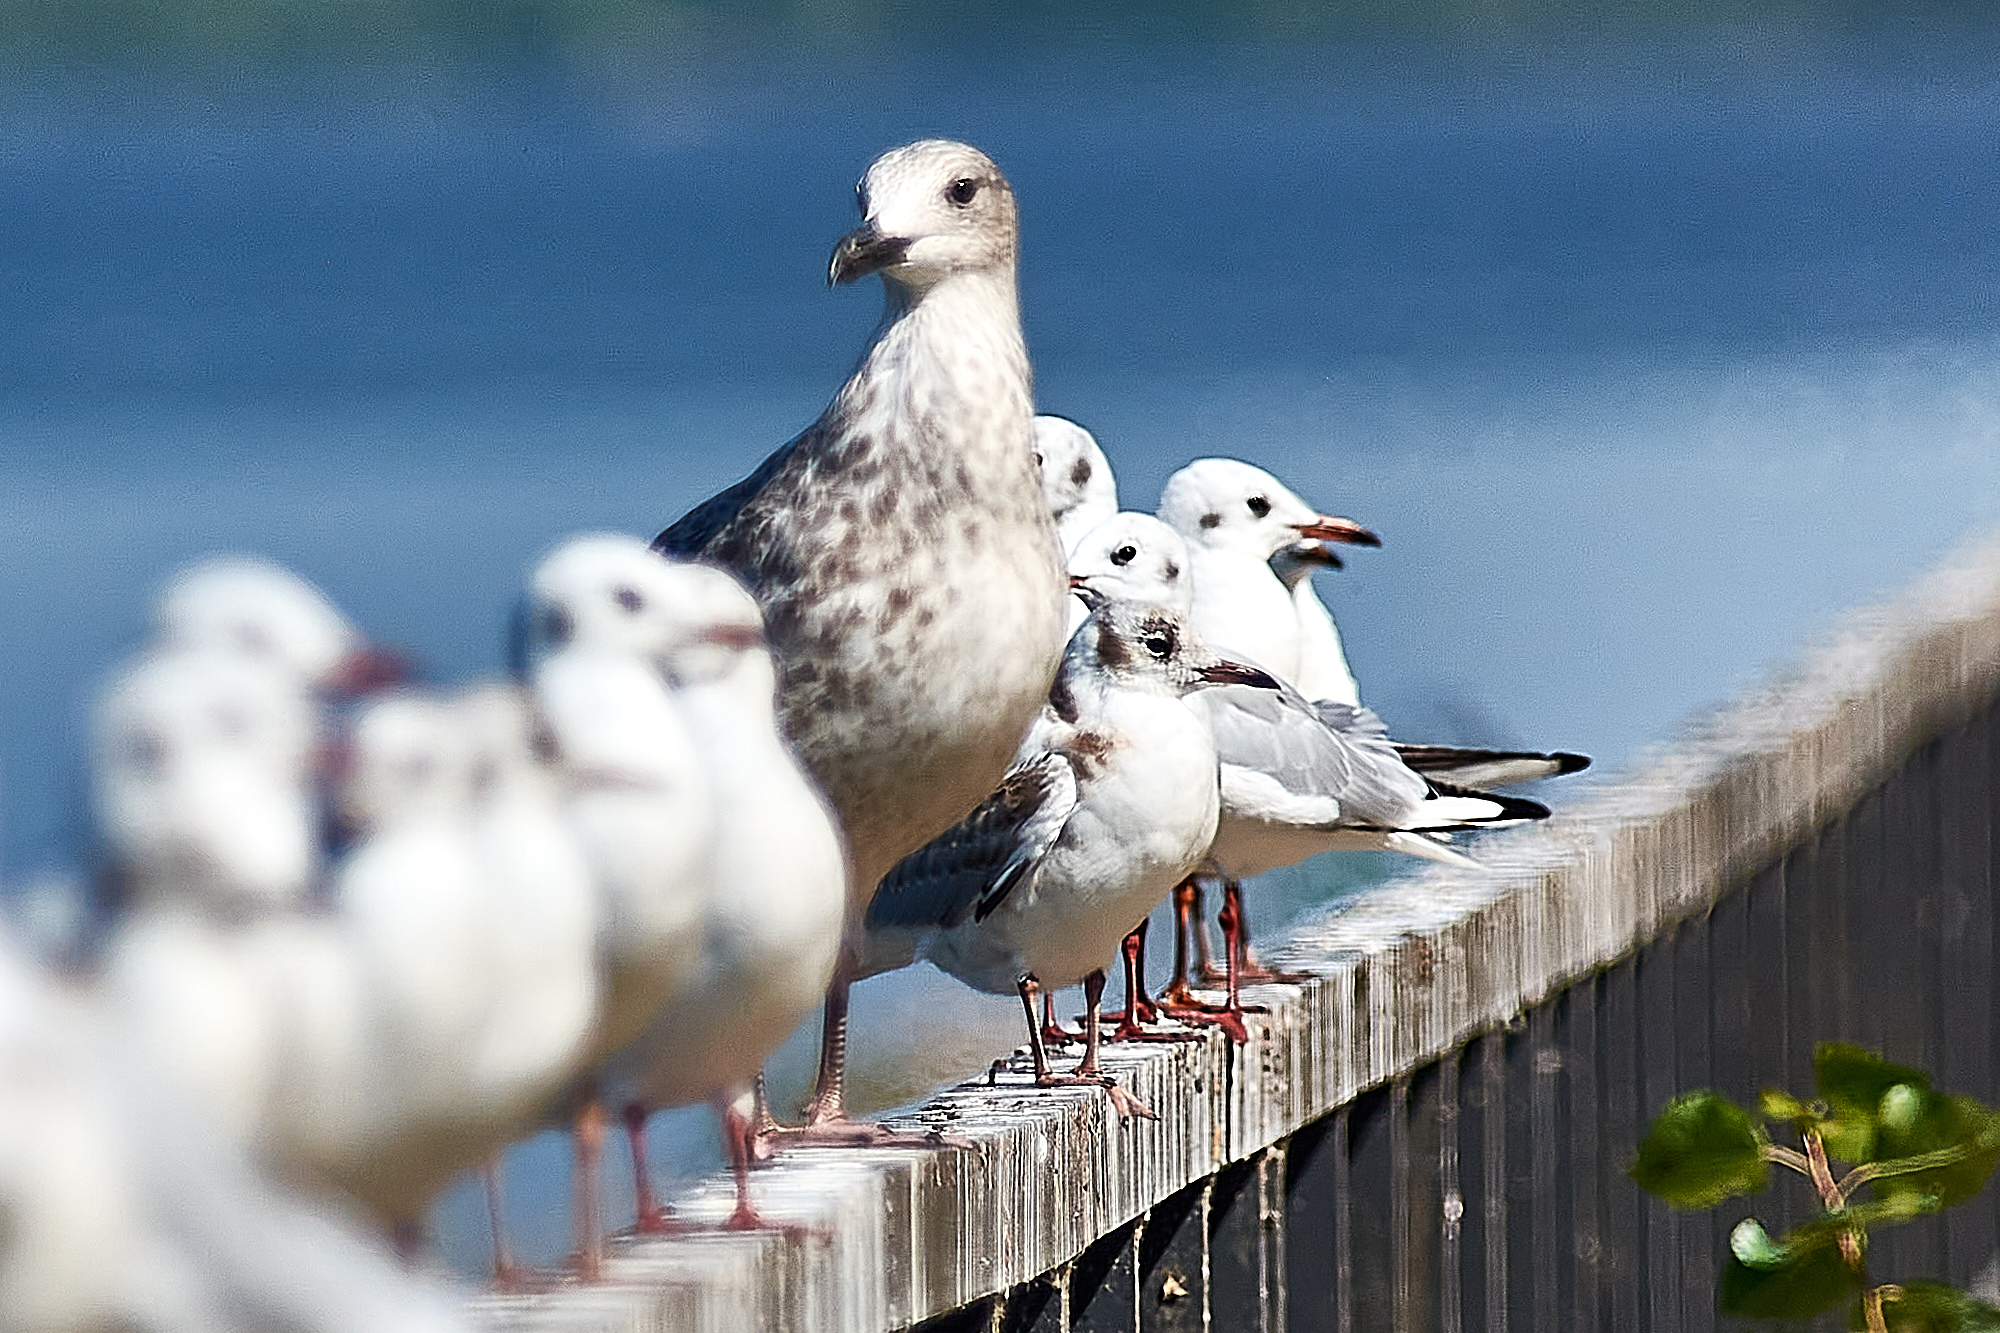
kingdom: Animalia
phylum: Chordata
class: Aves
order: Charadriiformes
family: Laridae
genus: Chroicocephalus
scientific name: Chroicocephalus ridibundus
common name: Black-headed gull
